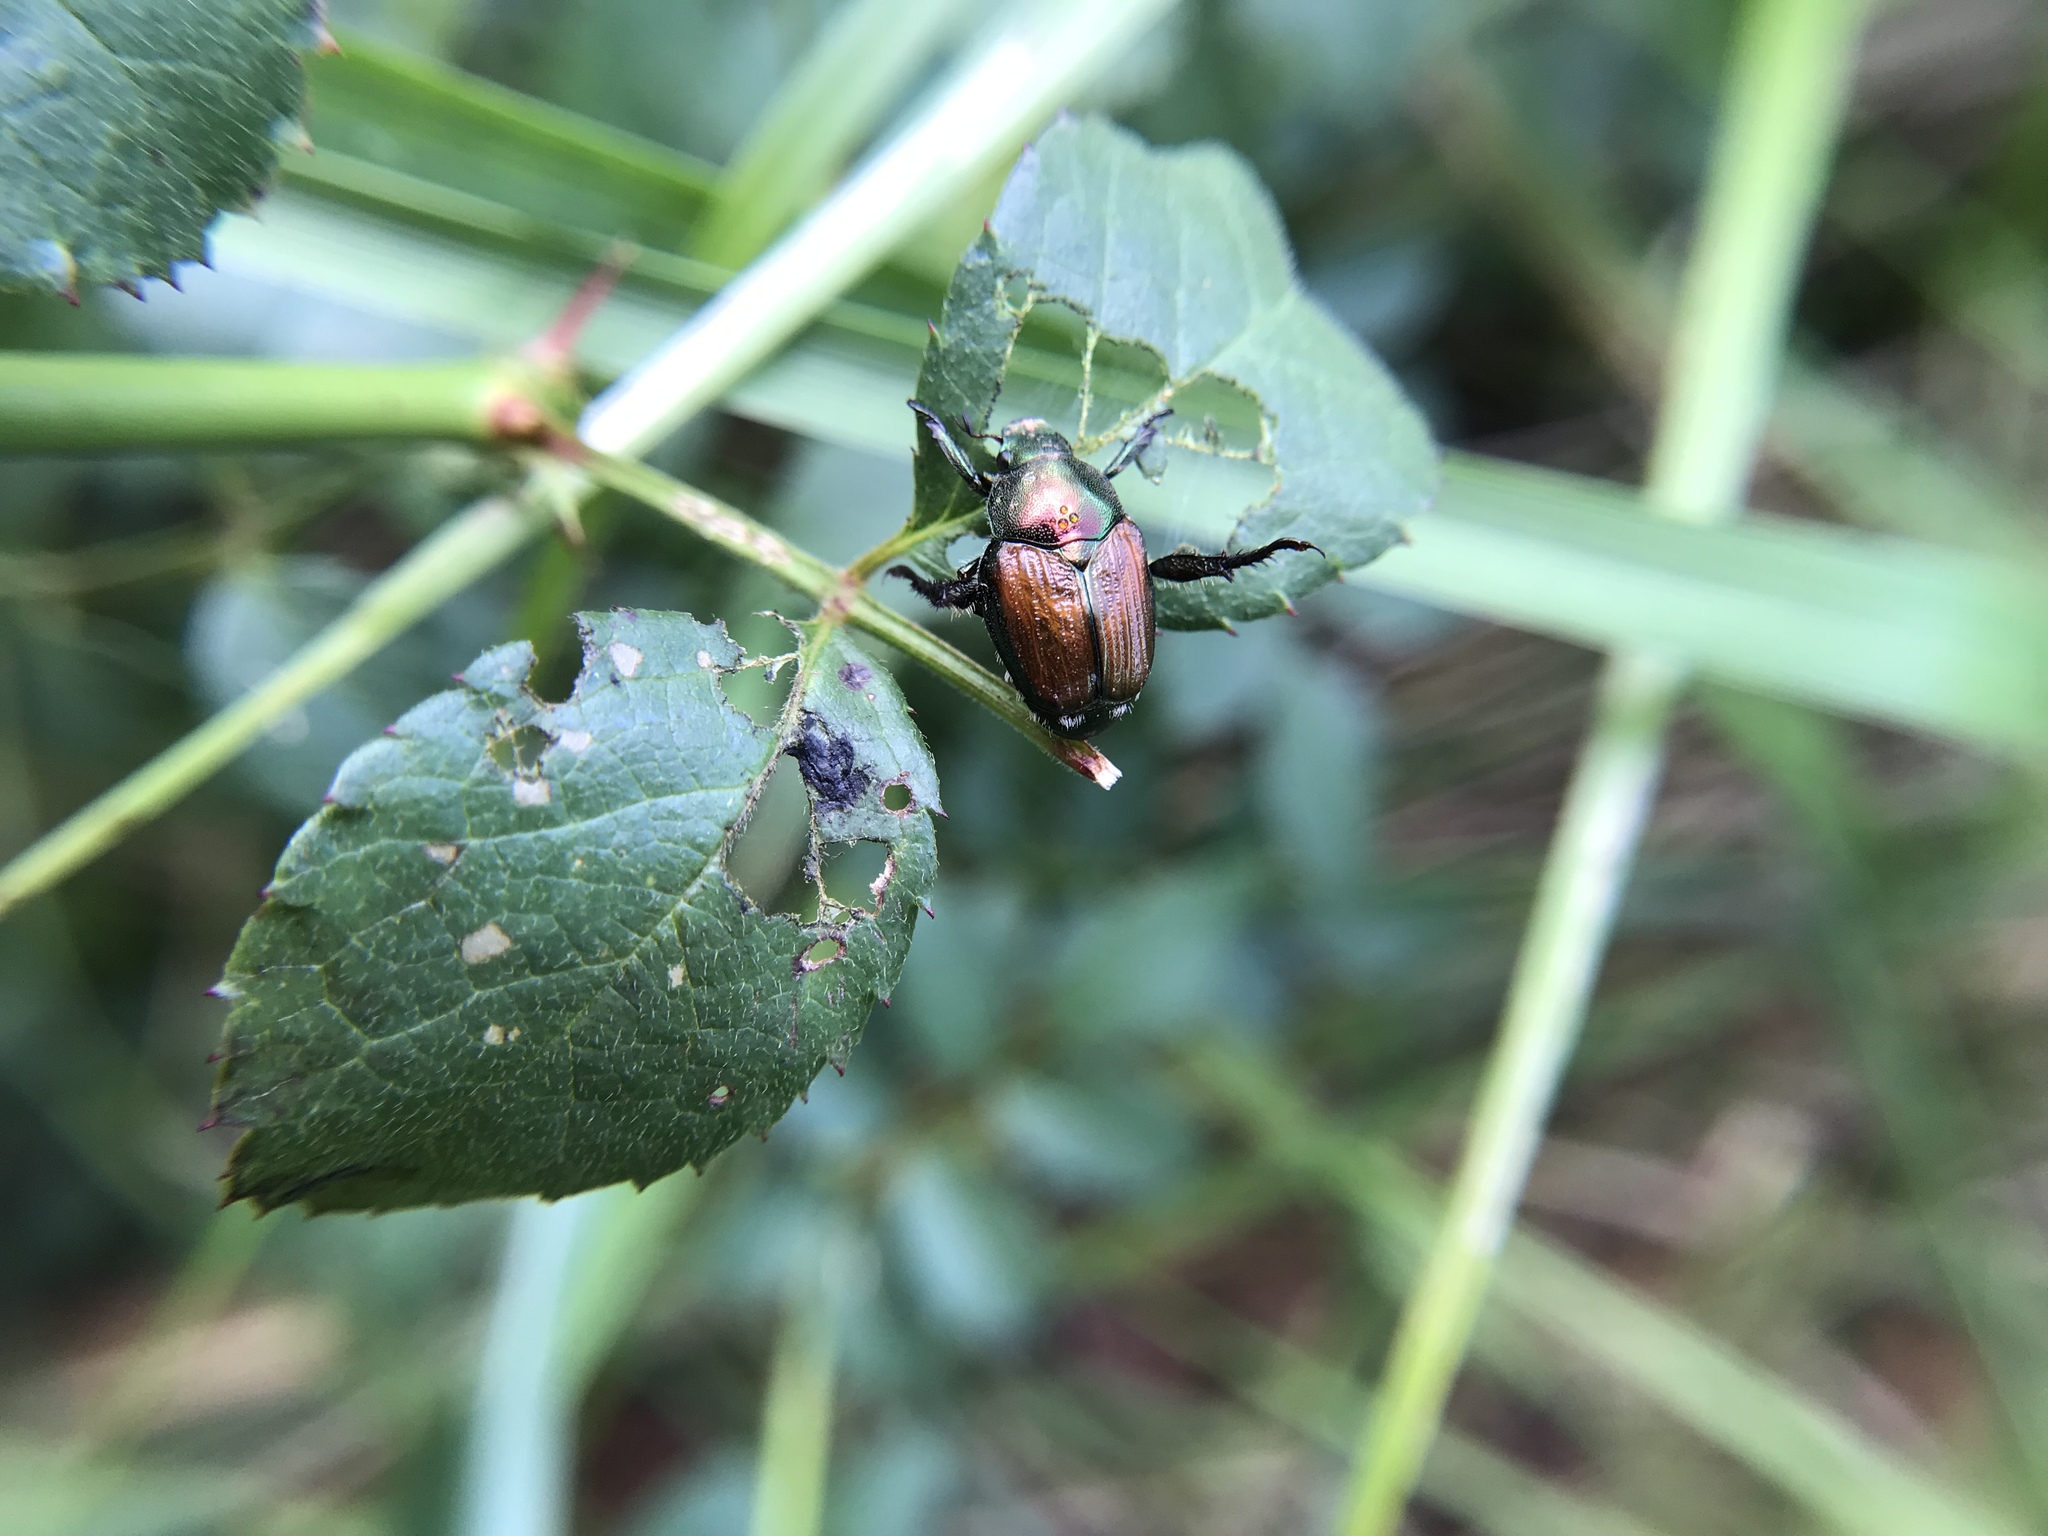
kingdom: Animalia
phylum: Arthropoda
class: Insecta
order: Coleoptera
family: Scarabaeidae
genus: Popillia
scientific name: Popillia japonica
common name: Japanese beetle
